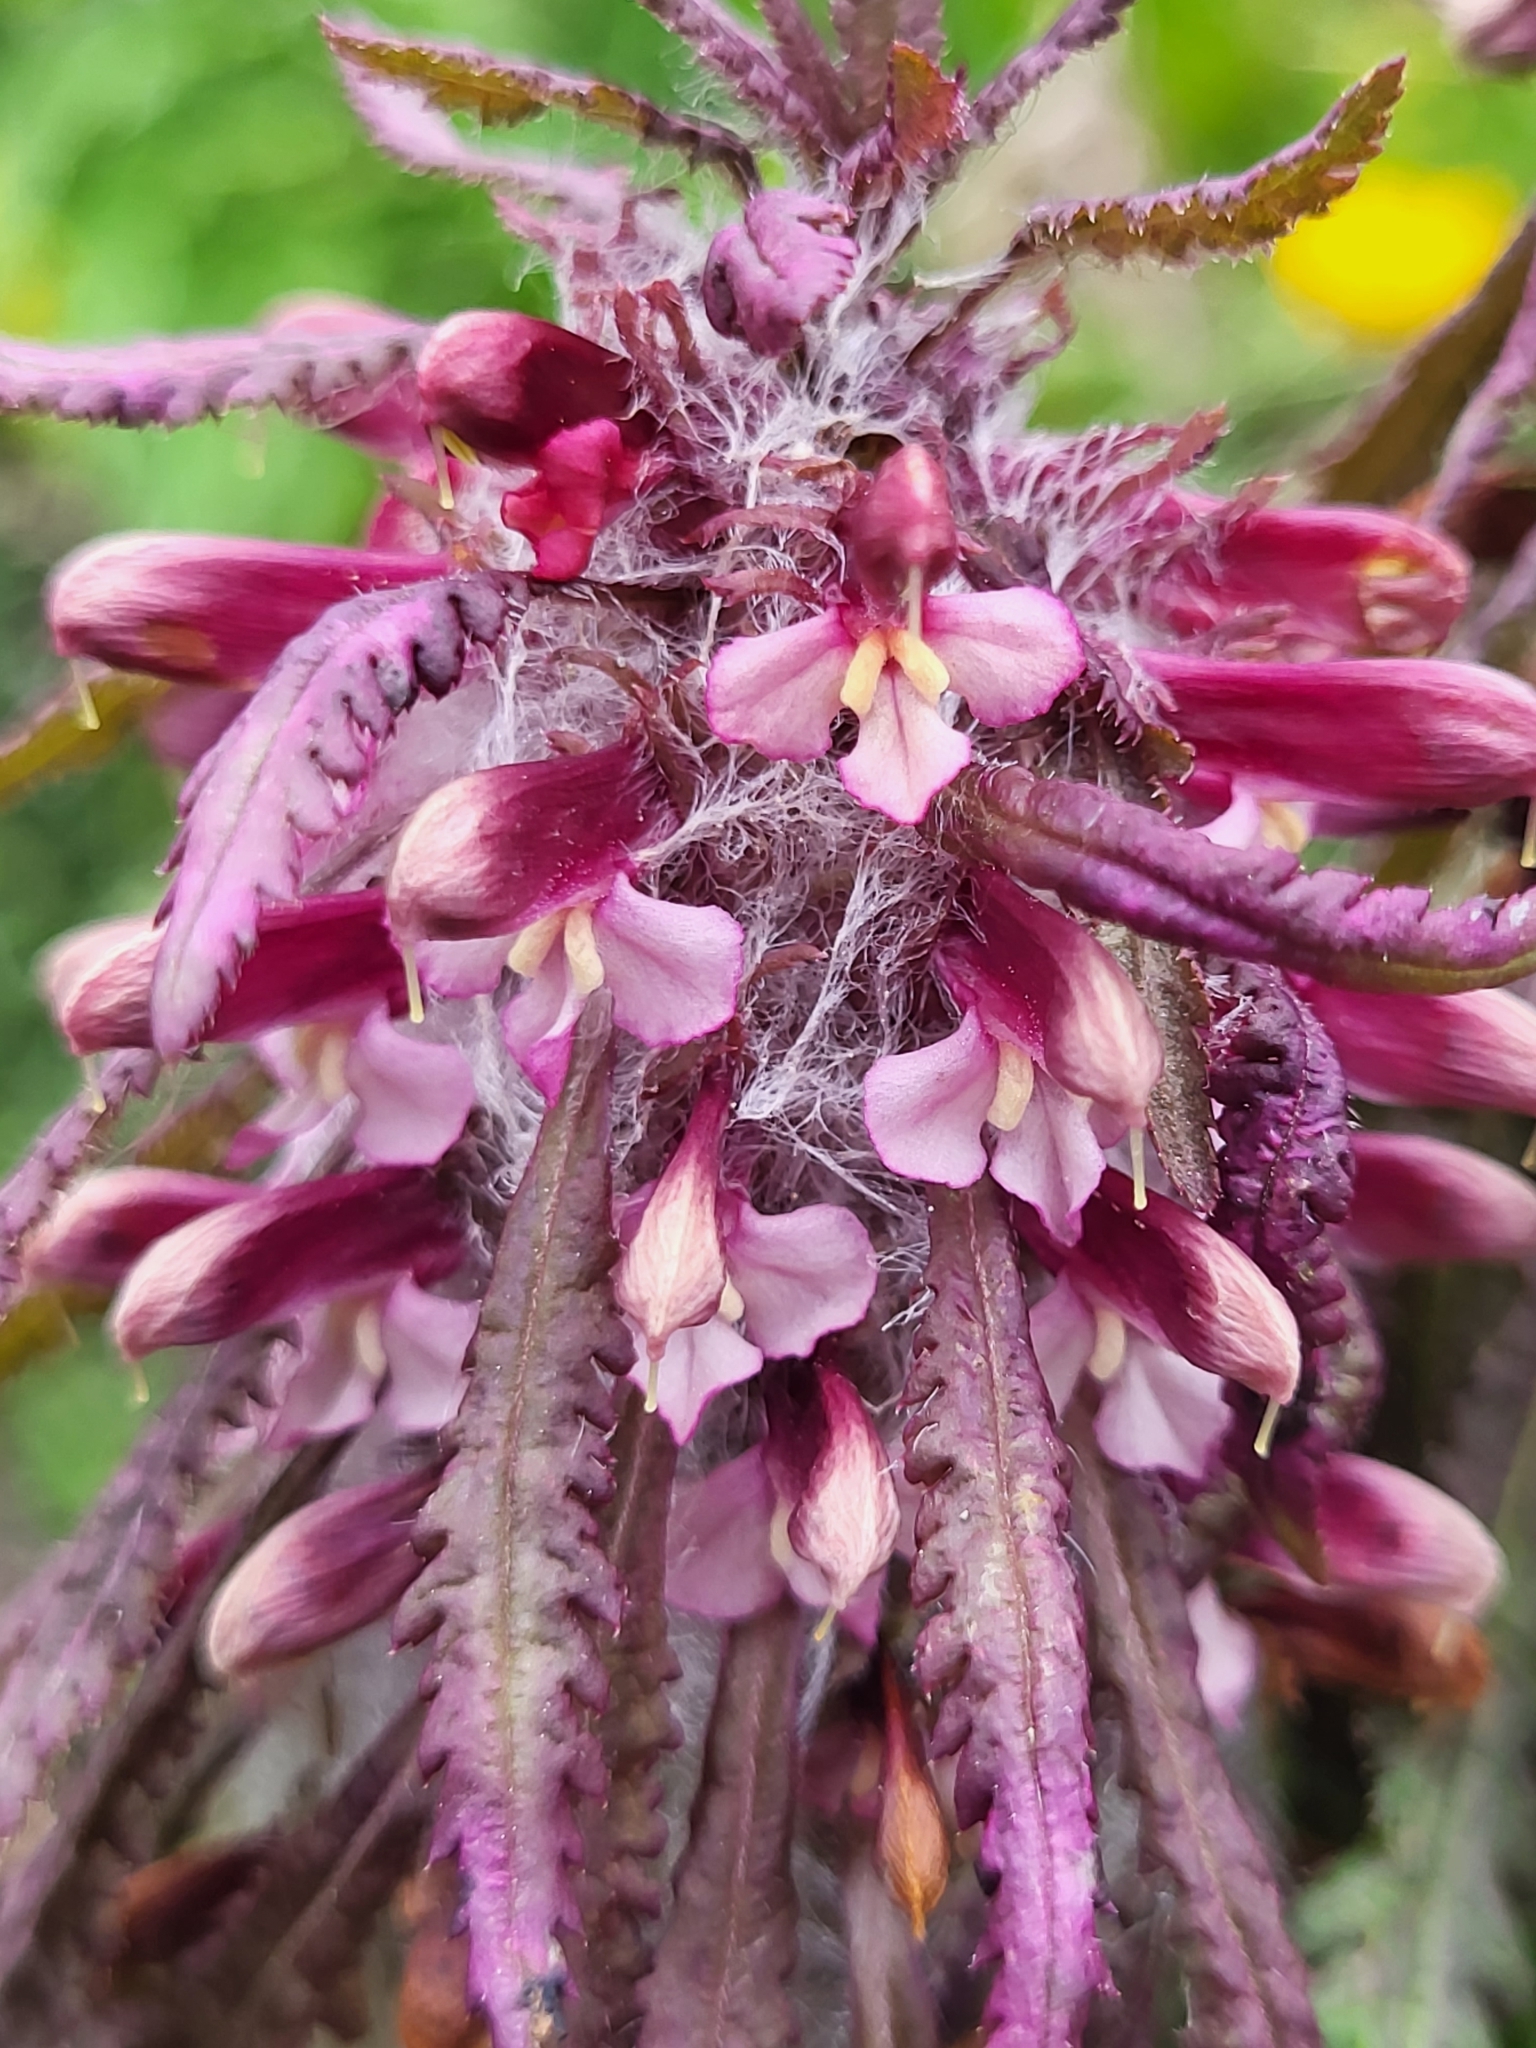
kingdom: Plantae
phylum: Tracheophyta
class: Magnoliopsida
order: Lamiales
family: Orobanchaceae
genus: Pedicularis
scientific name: Pedicularis wilhelmsiana
